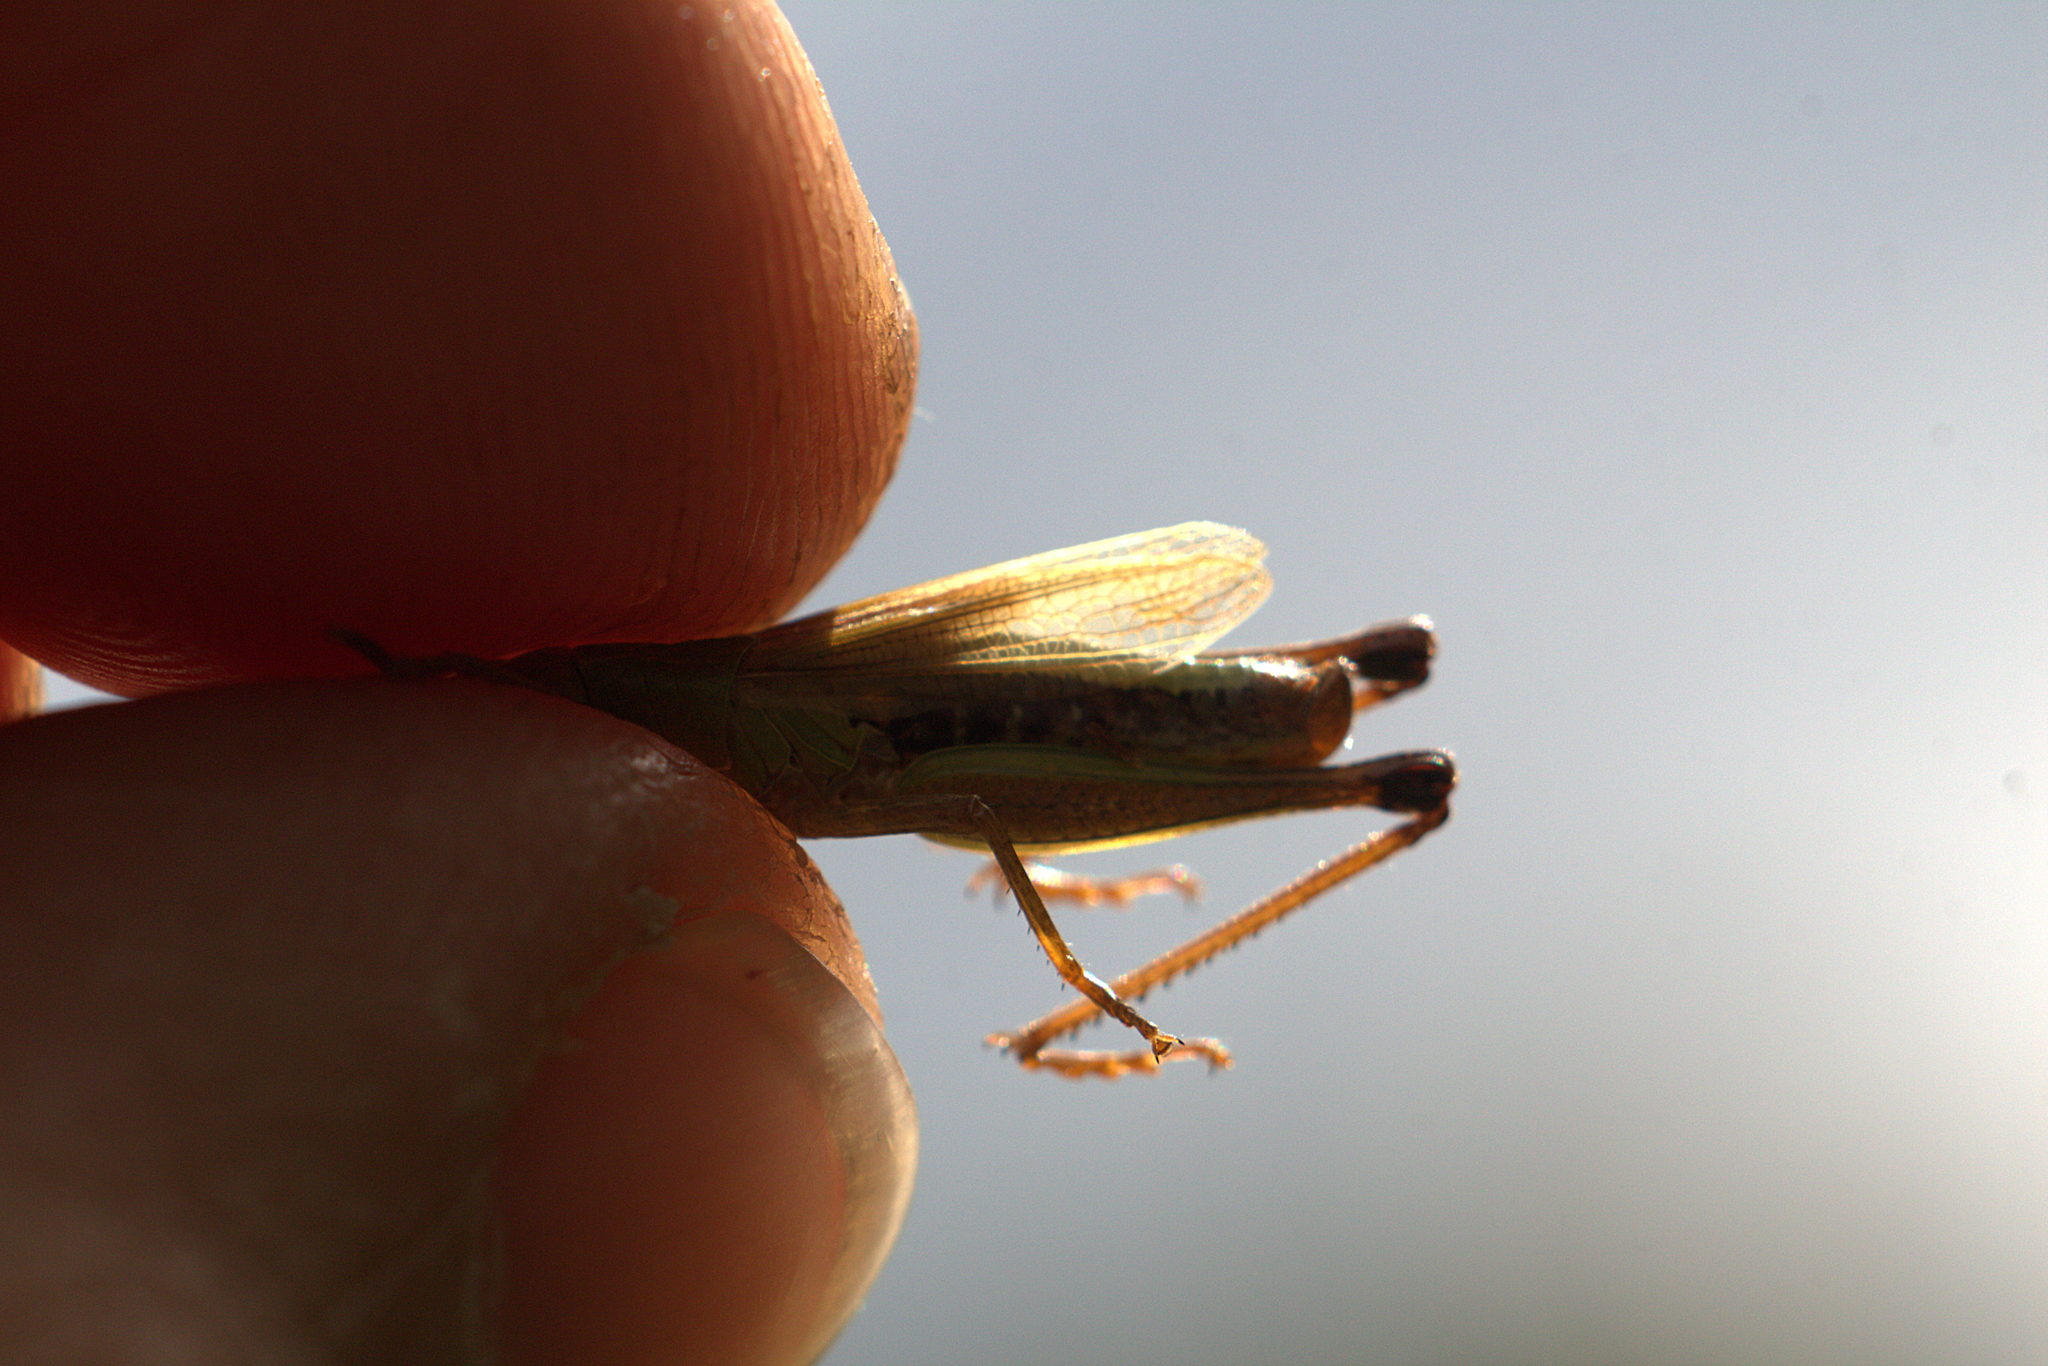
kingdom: Animalia
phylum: Arthropoda
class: Insecta
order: Orthoptera
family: Acrididae
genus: Pseudochorthippus
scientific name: Pseudochorthippus parallelus
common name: Meadow grasshopper
